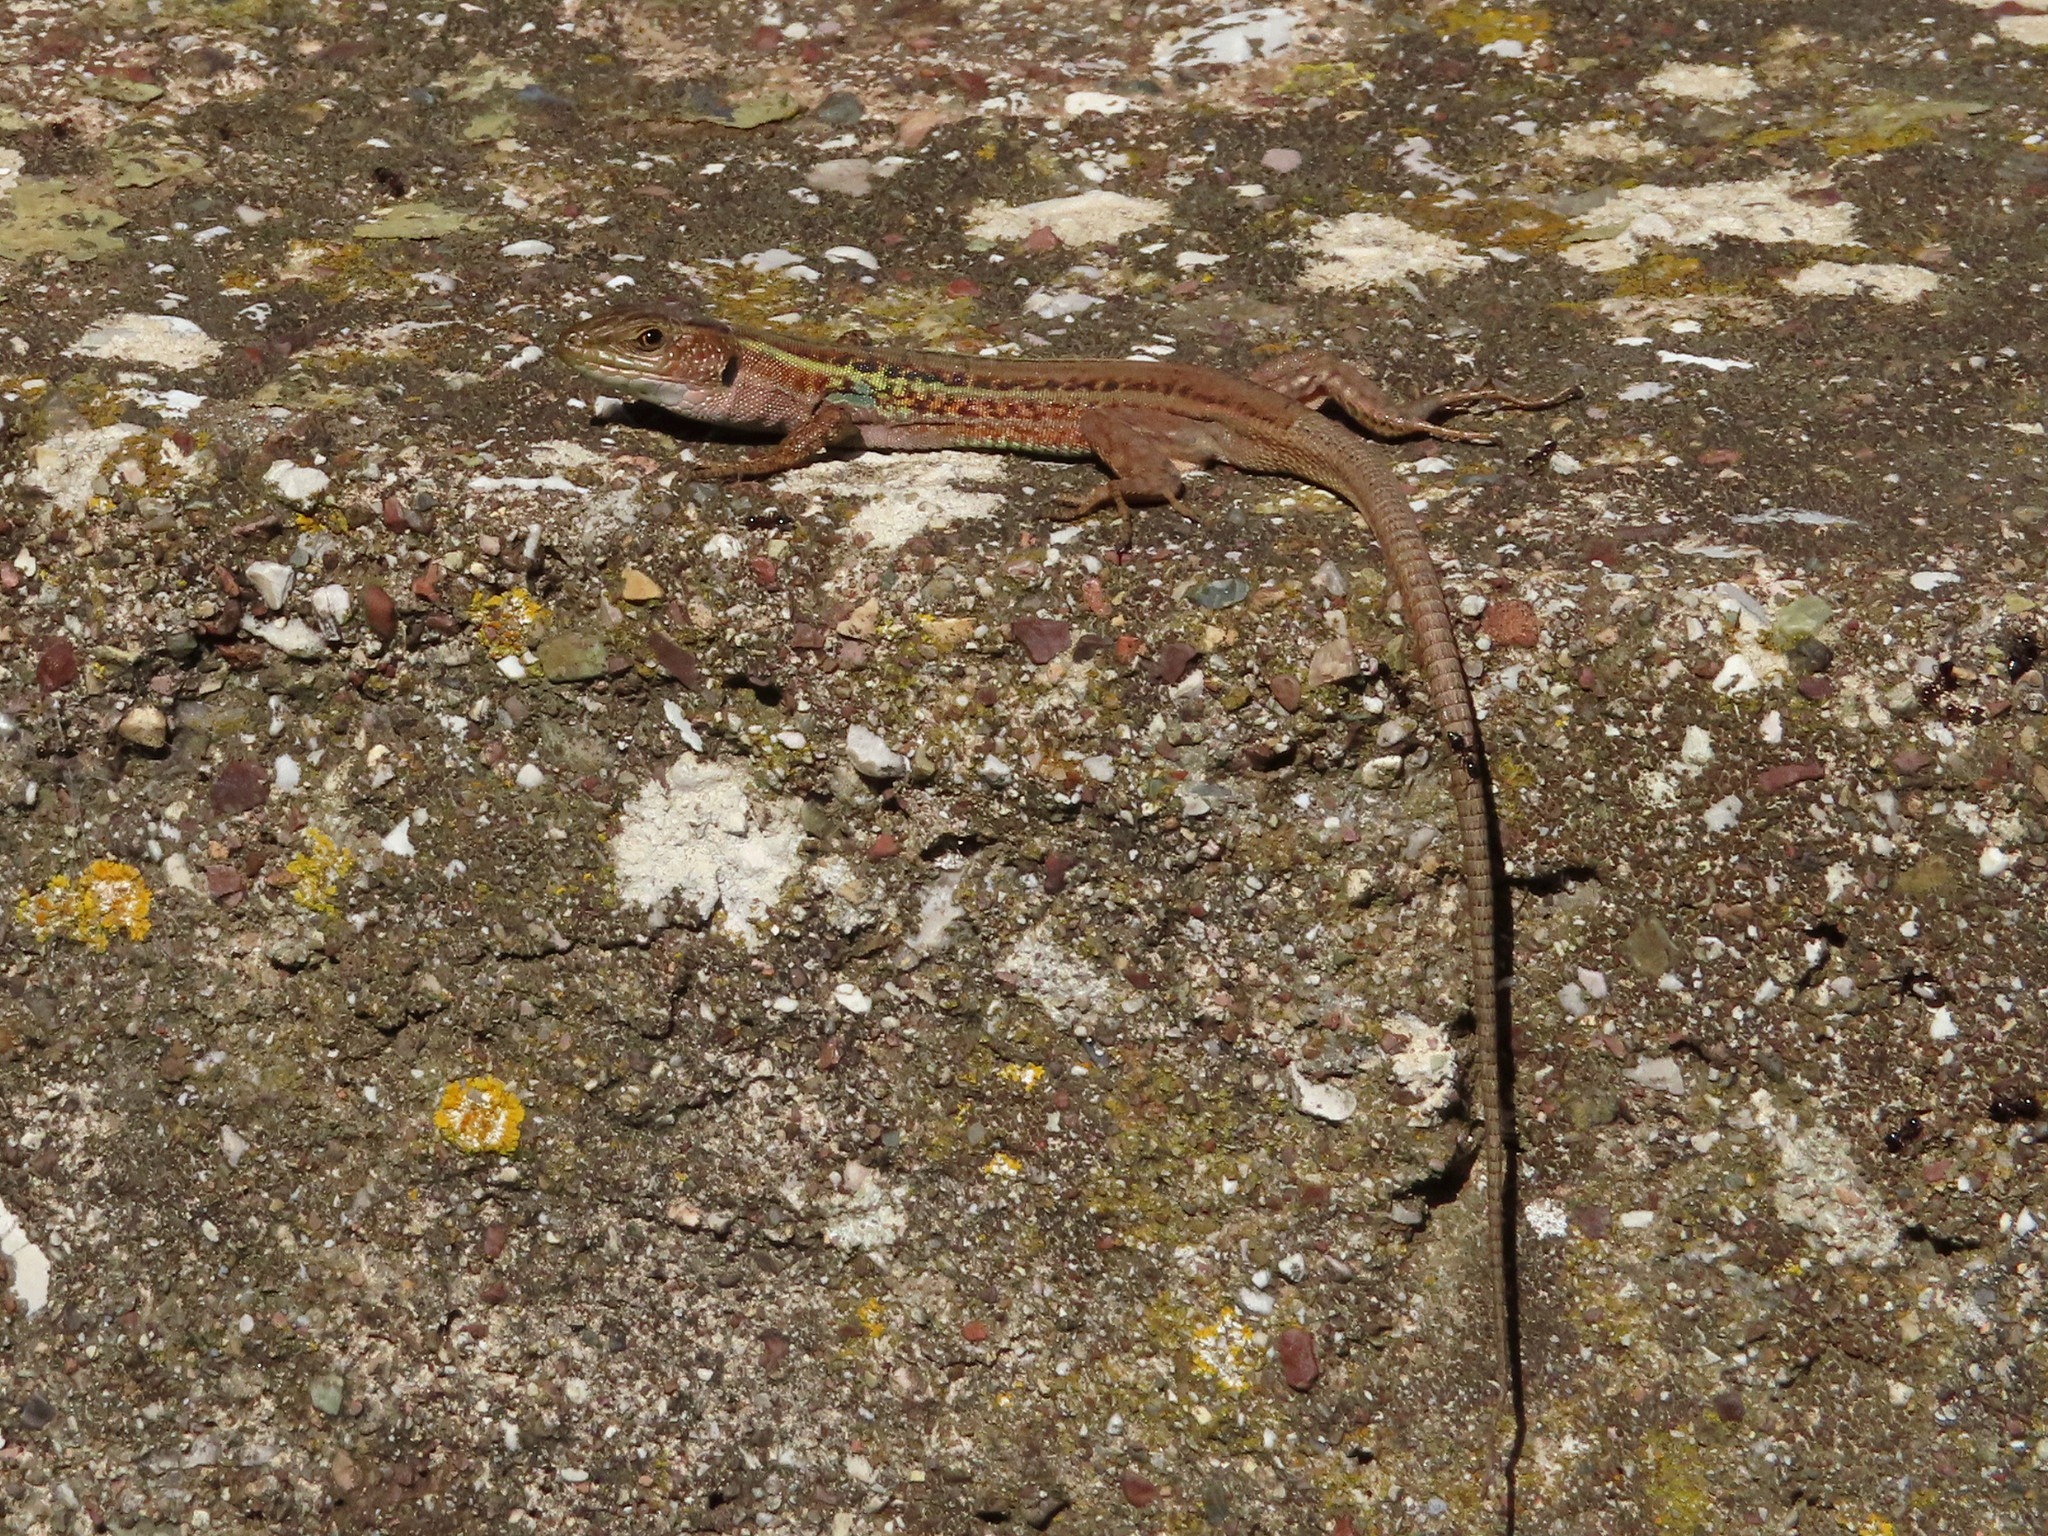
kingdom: Animalia
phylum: Chordata
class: Squamata
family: Lacertidae
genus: Podarcis
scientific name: Podarcis peloponnesiacus
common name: Peloponnese wall lizard
